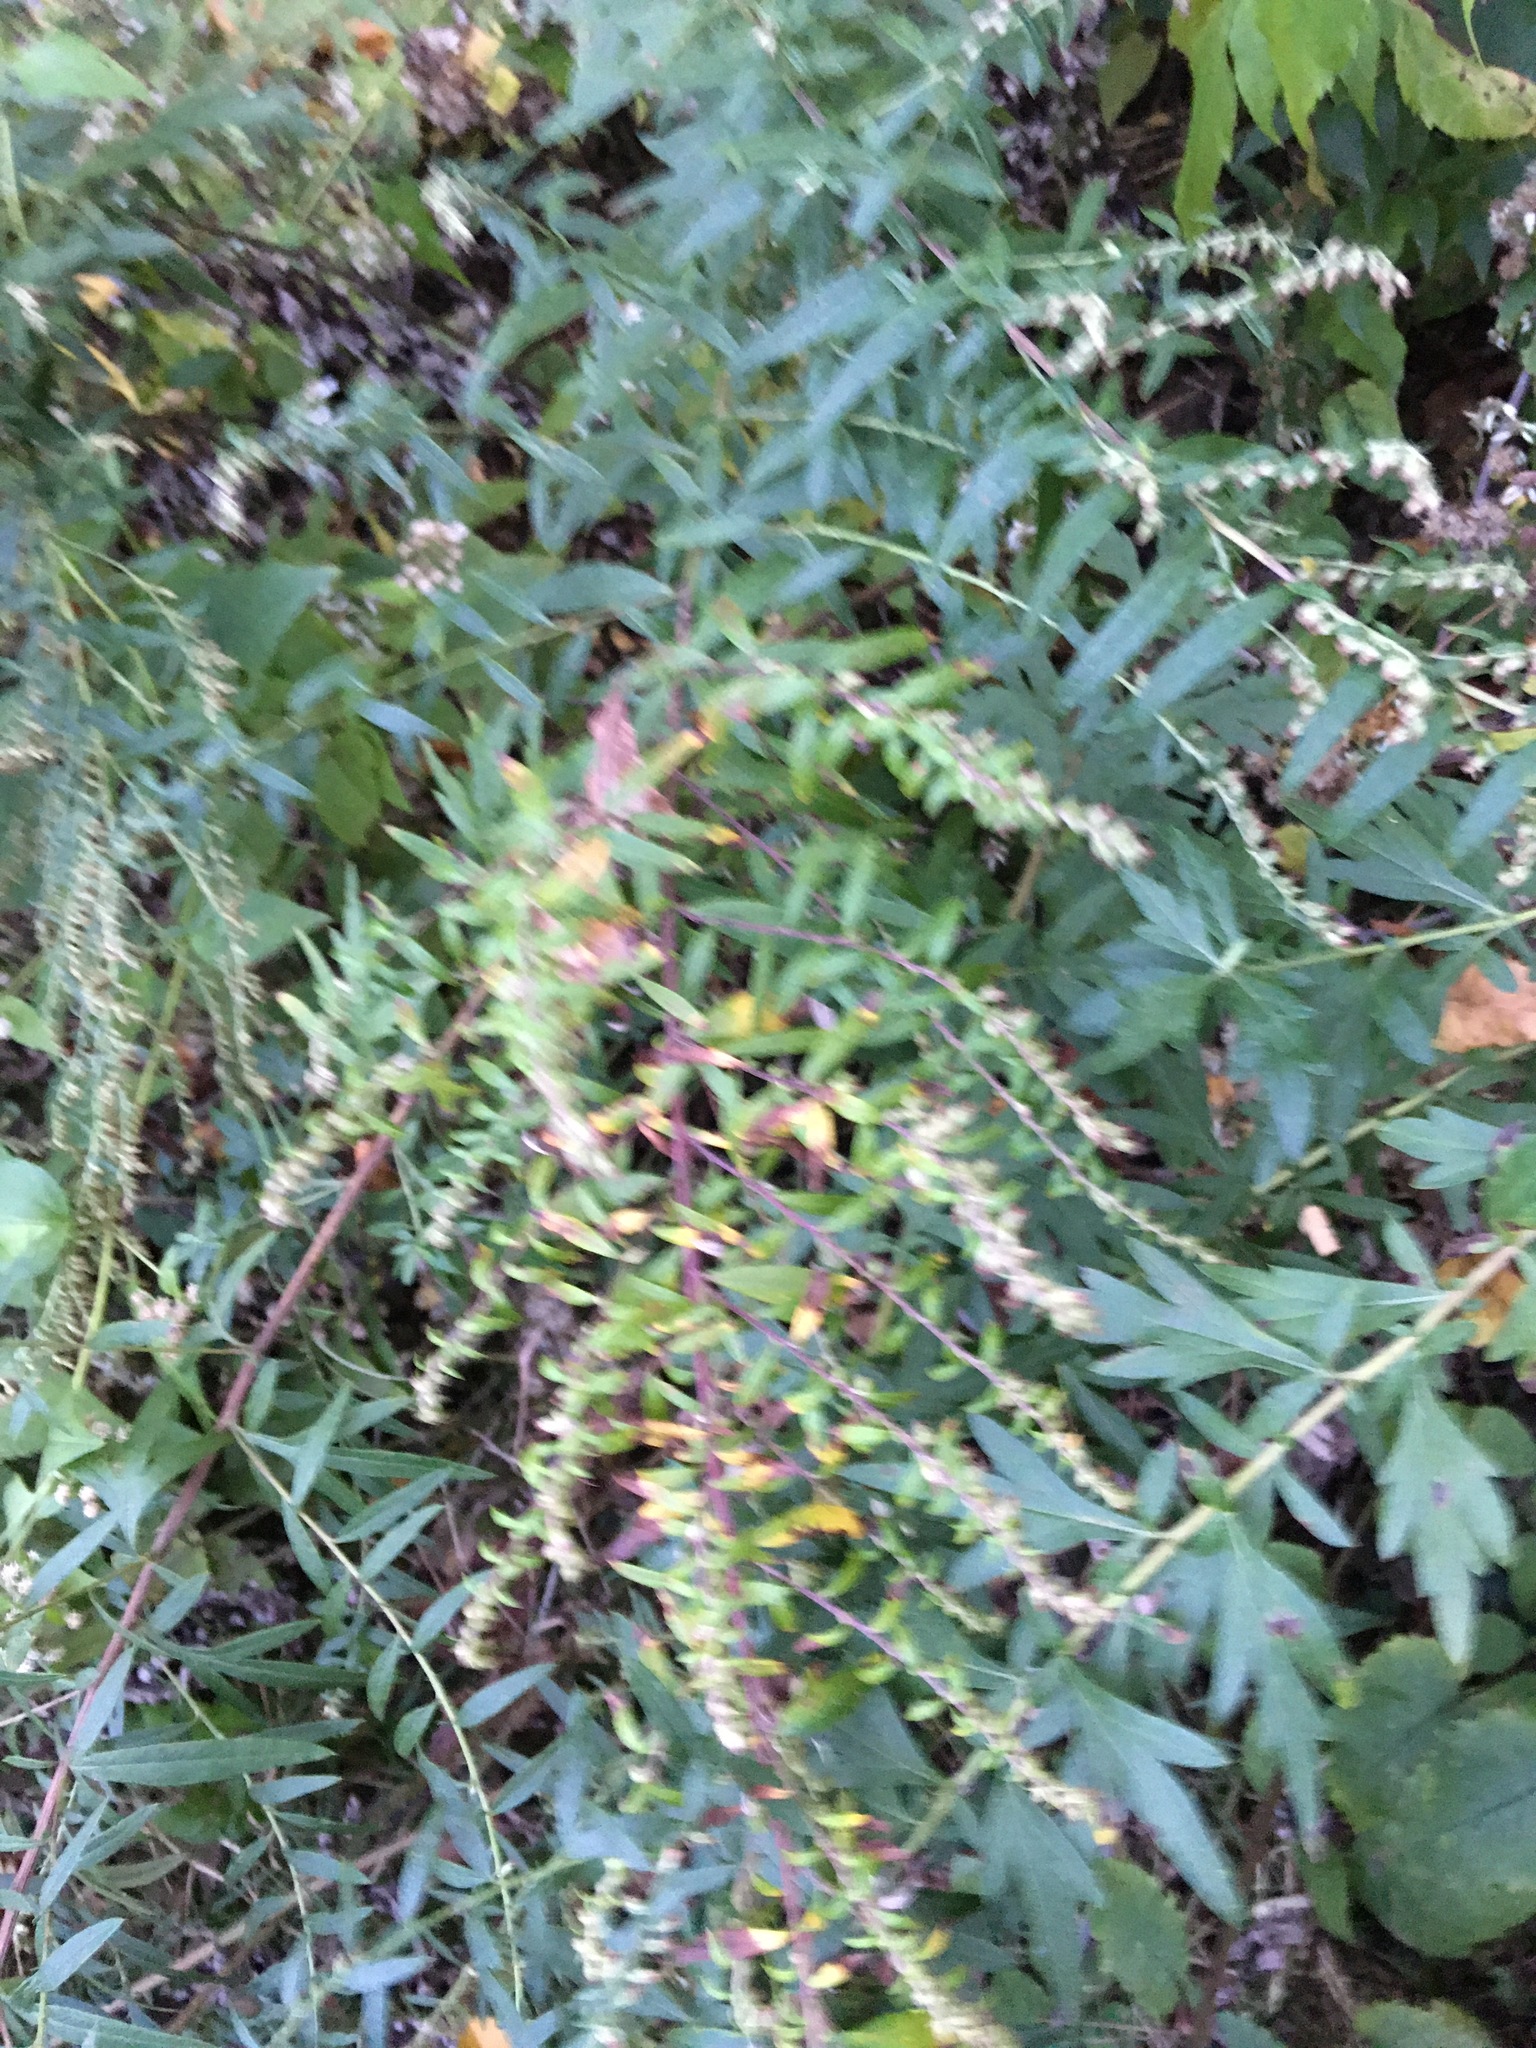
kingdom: Plantae
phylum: Tracheophyta
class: Magnoliopsida
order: Asterales
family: Asteraceae
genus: Artemisia
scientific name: Artemisia vulgaris
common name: Mugwort
